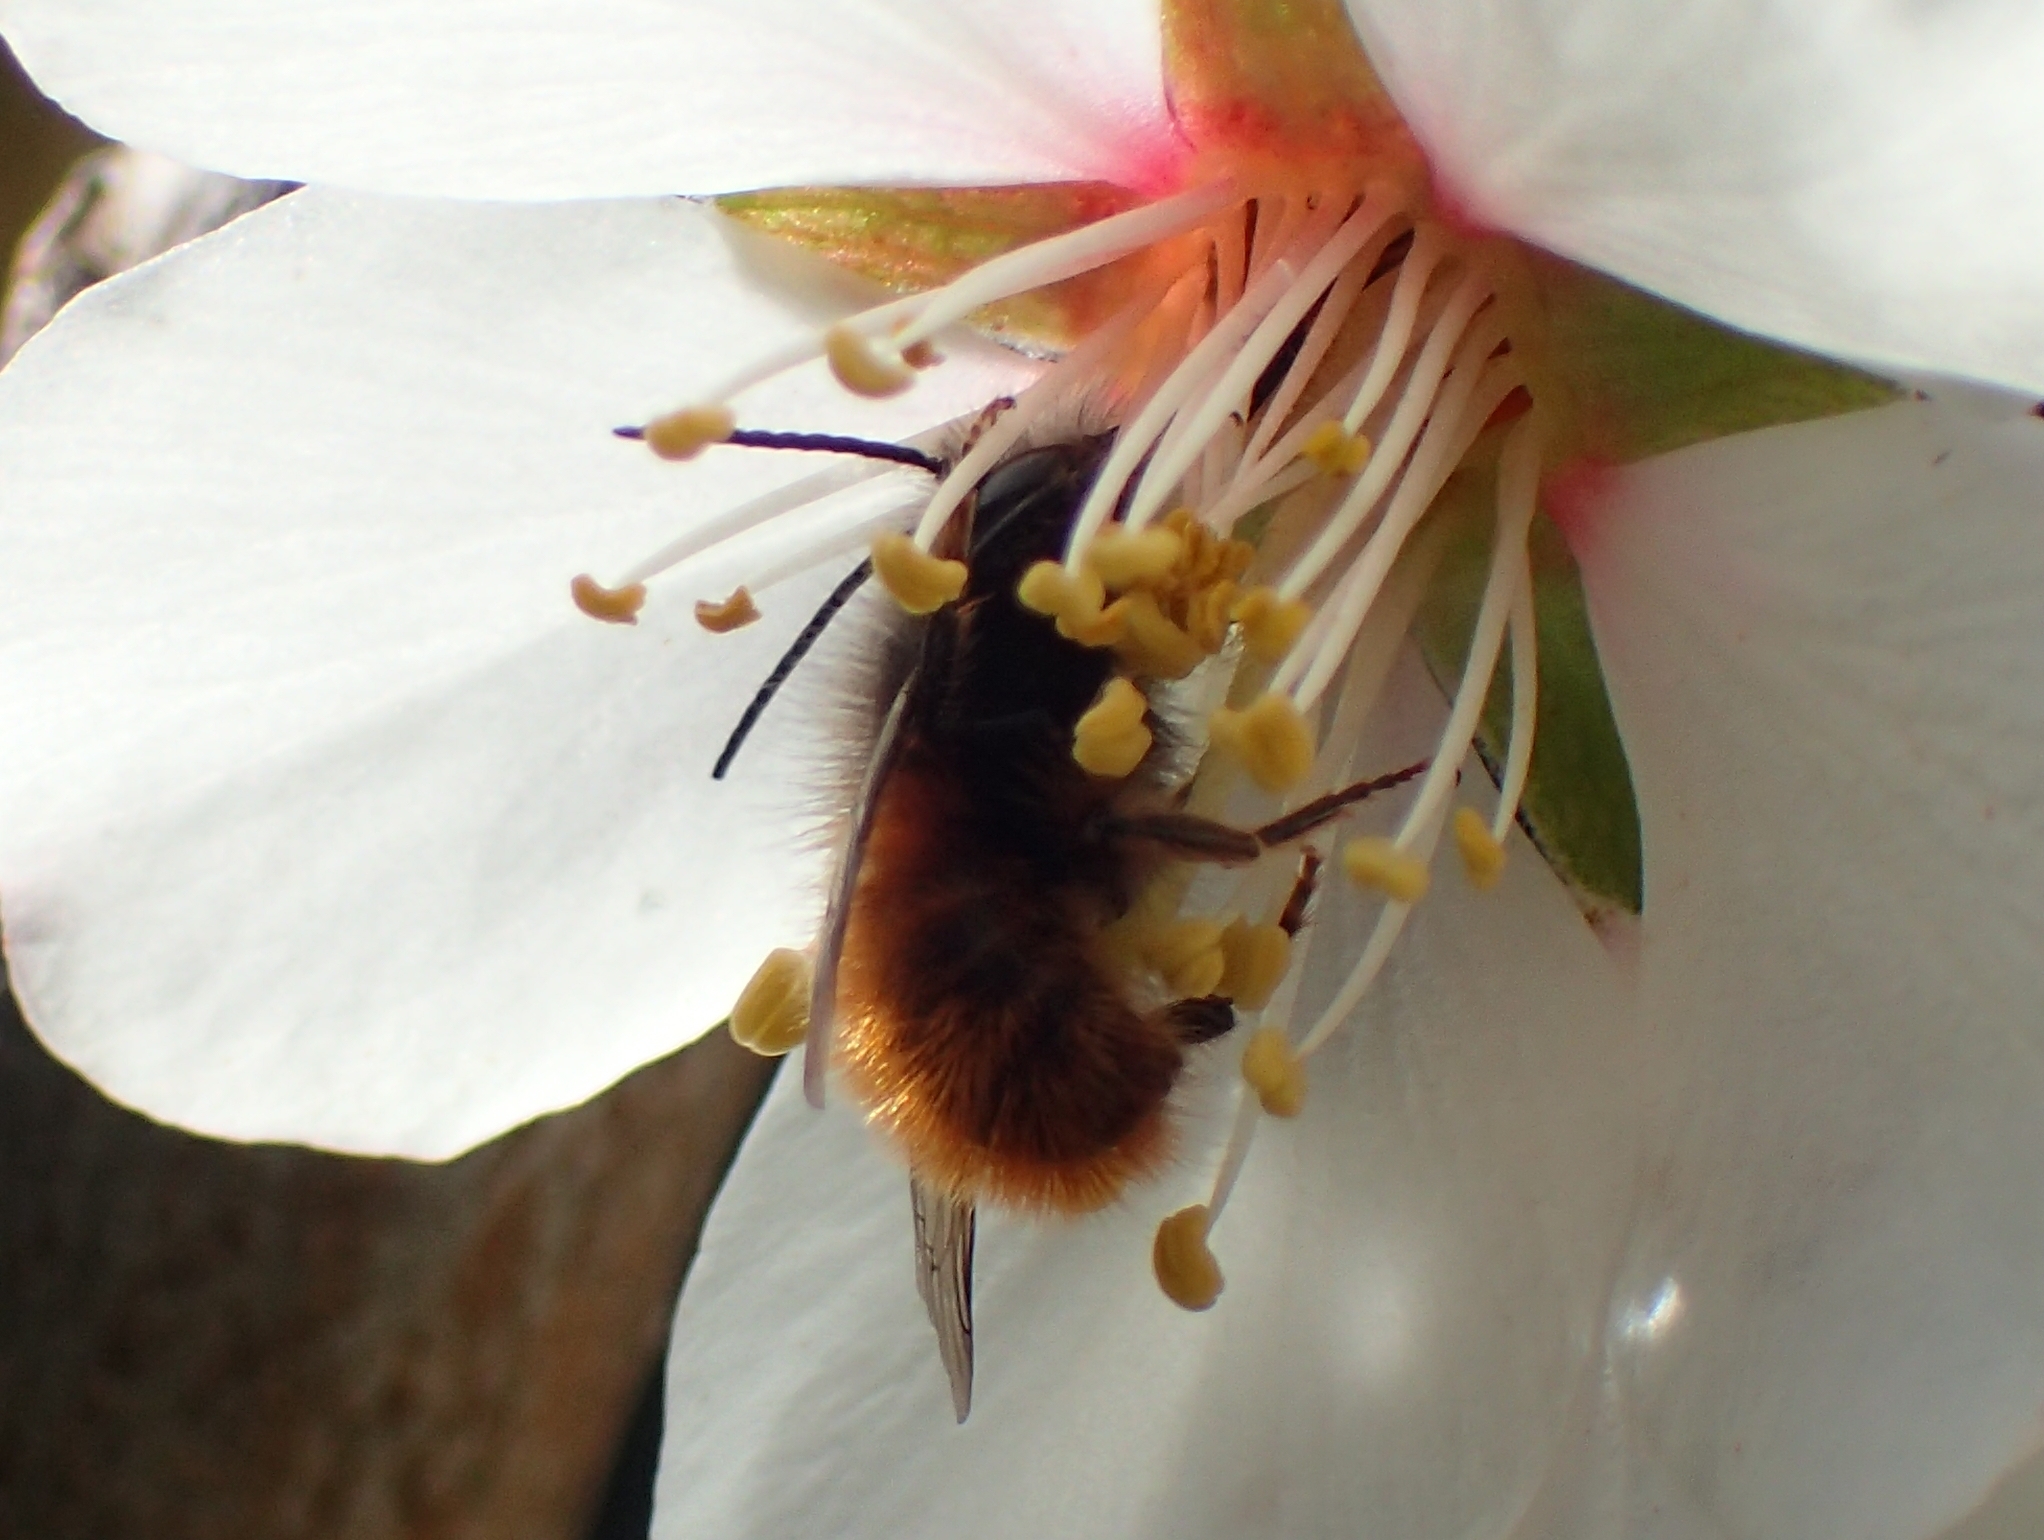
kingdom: Animalia
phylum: Arthropoda
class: Insecta
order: Hymenoptera
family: Megachilidae
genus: Osmia
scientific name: Osmia cornuta
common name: Mason bee
